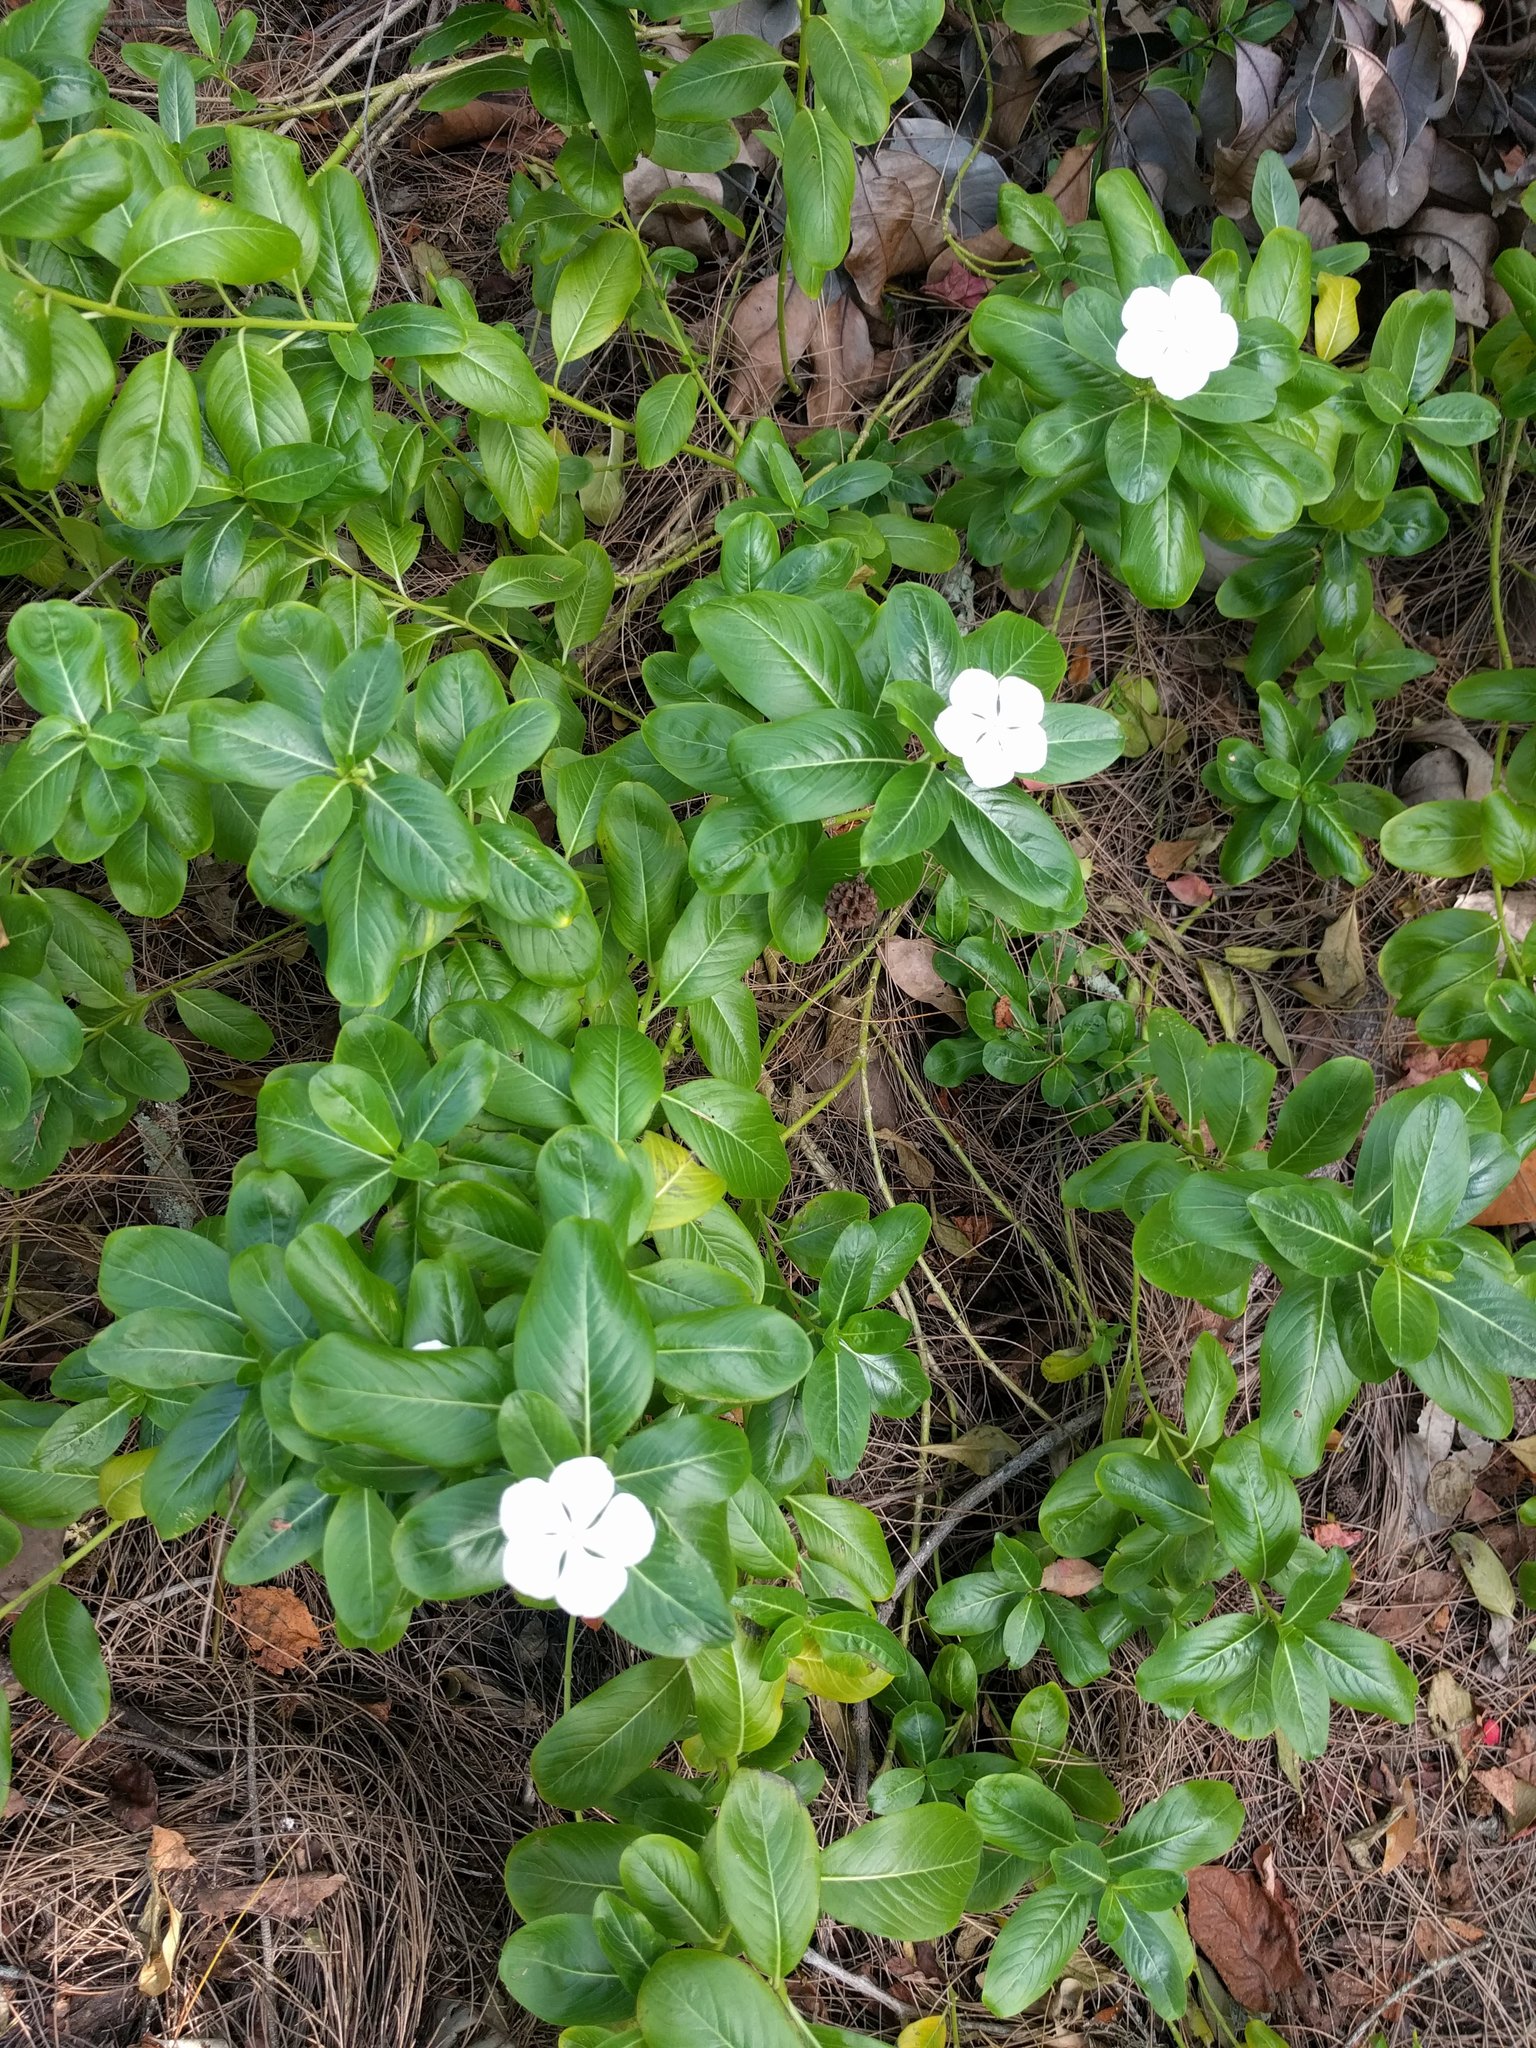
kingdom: Plantae
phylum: Tracheophyta
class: Magnoliopsida
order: Gentianales
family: Apocynaceae
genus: Catharanthus
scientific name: Catharanthus roseus
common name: Madagascar periwinkle
